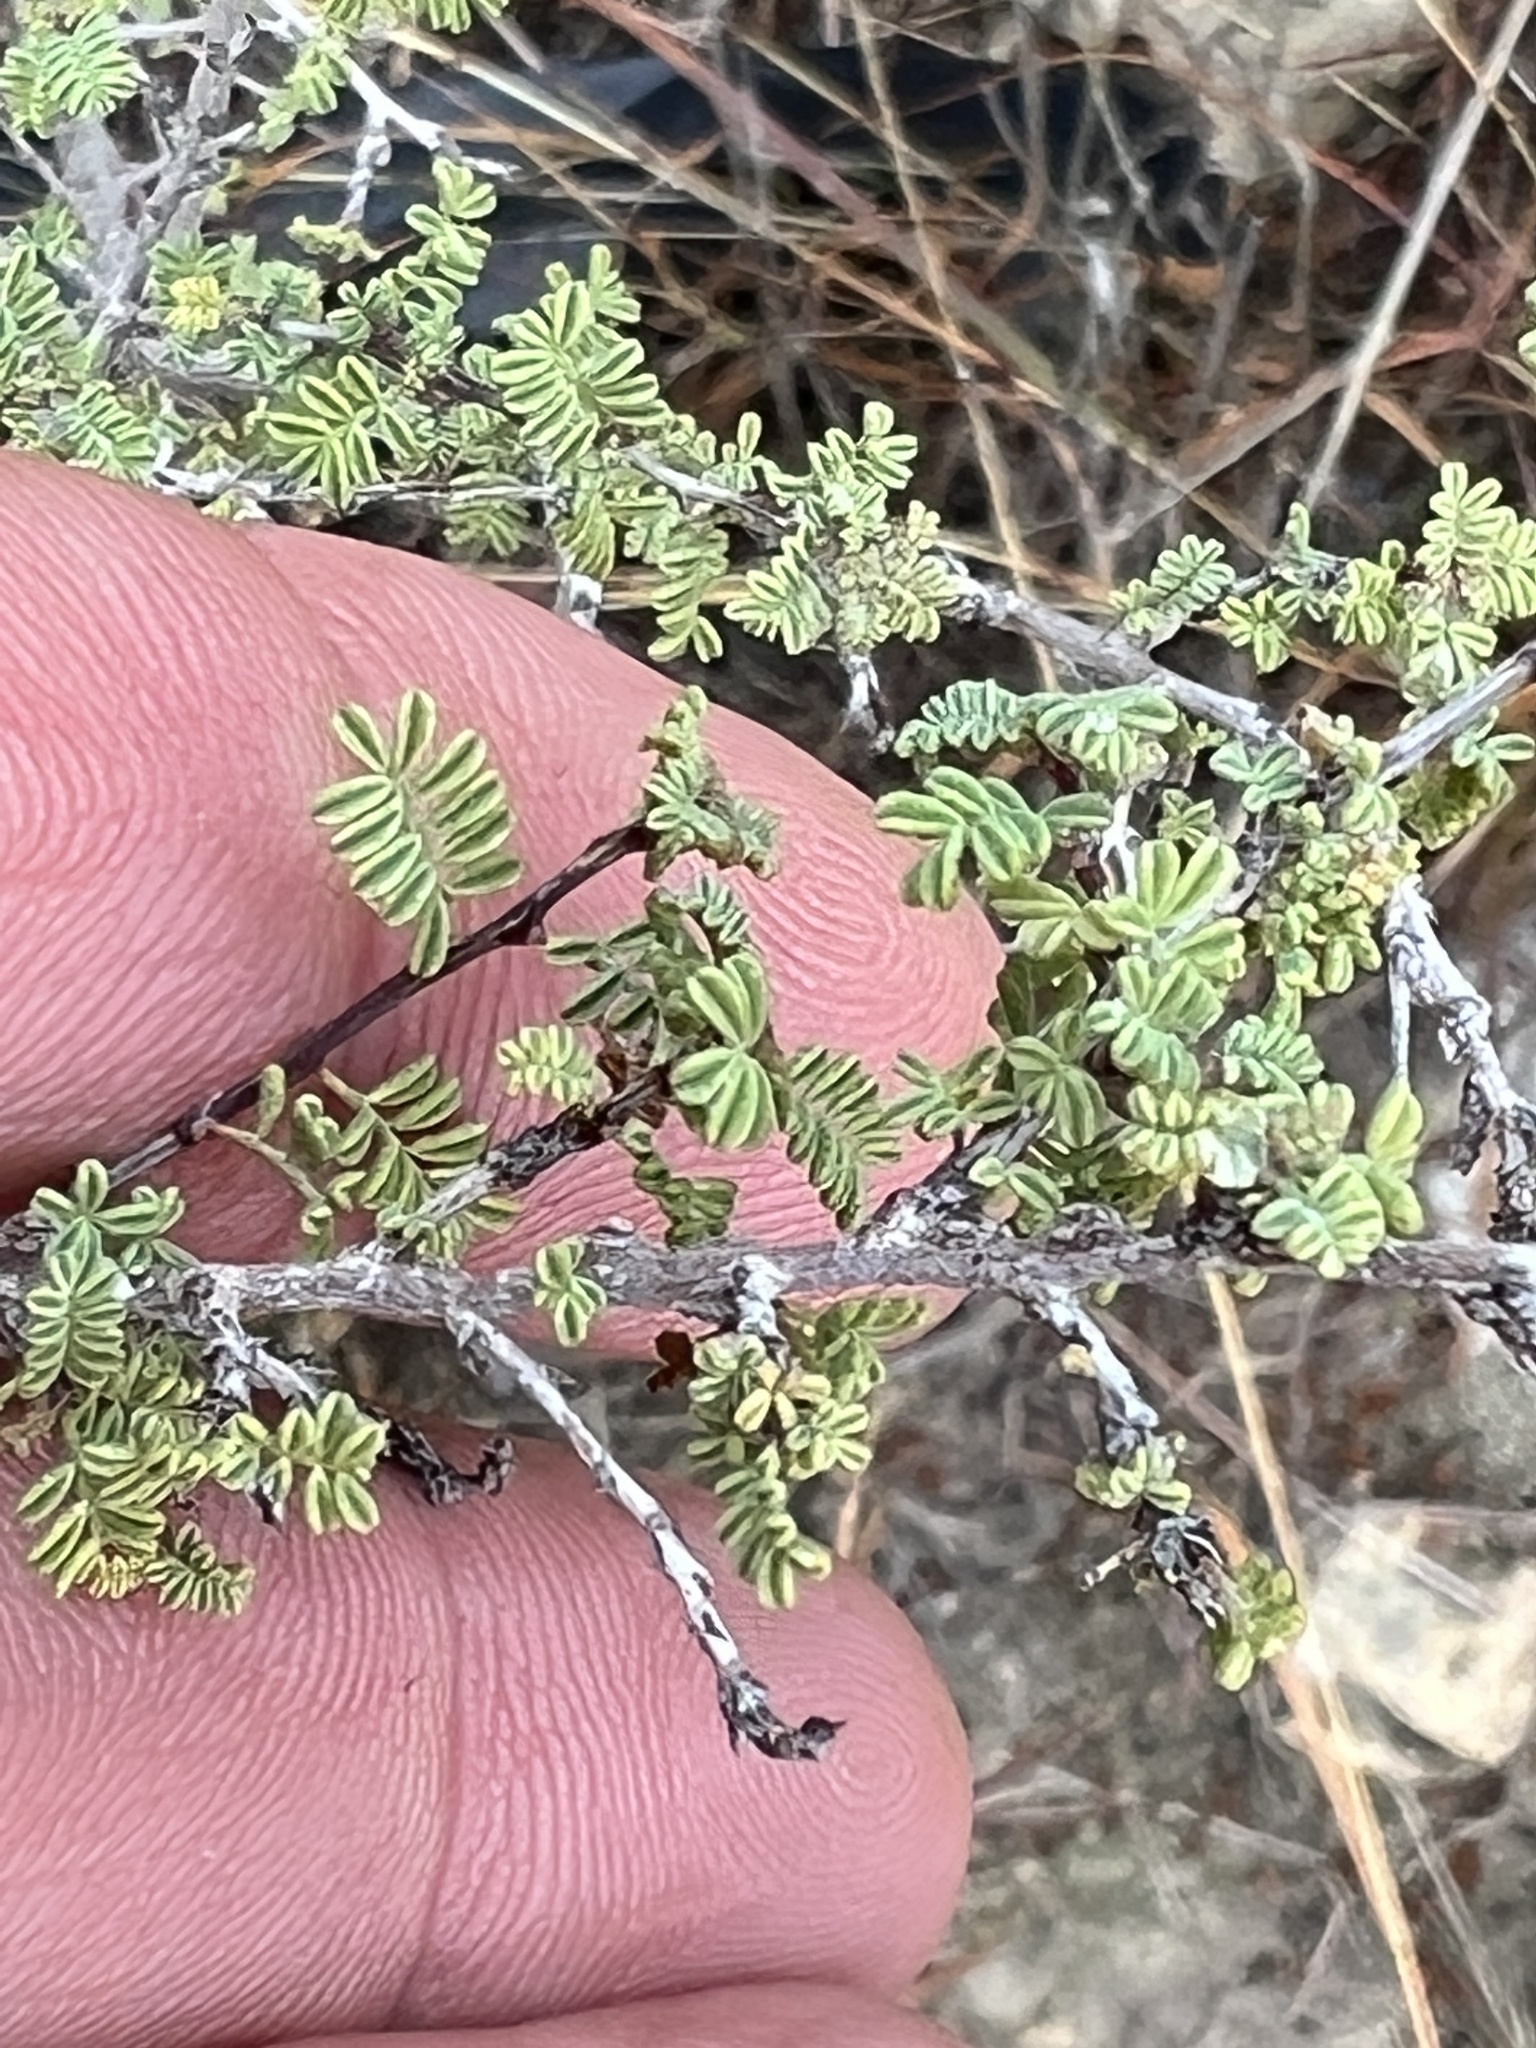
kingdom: Plantae
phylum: Tracheophyta
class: Magnoliopsida
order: Fabales
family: Fabaceae
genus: Dalea
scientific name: Dalea formosa
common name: Feather-plume dalea
